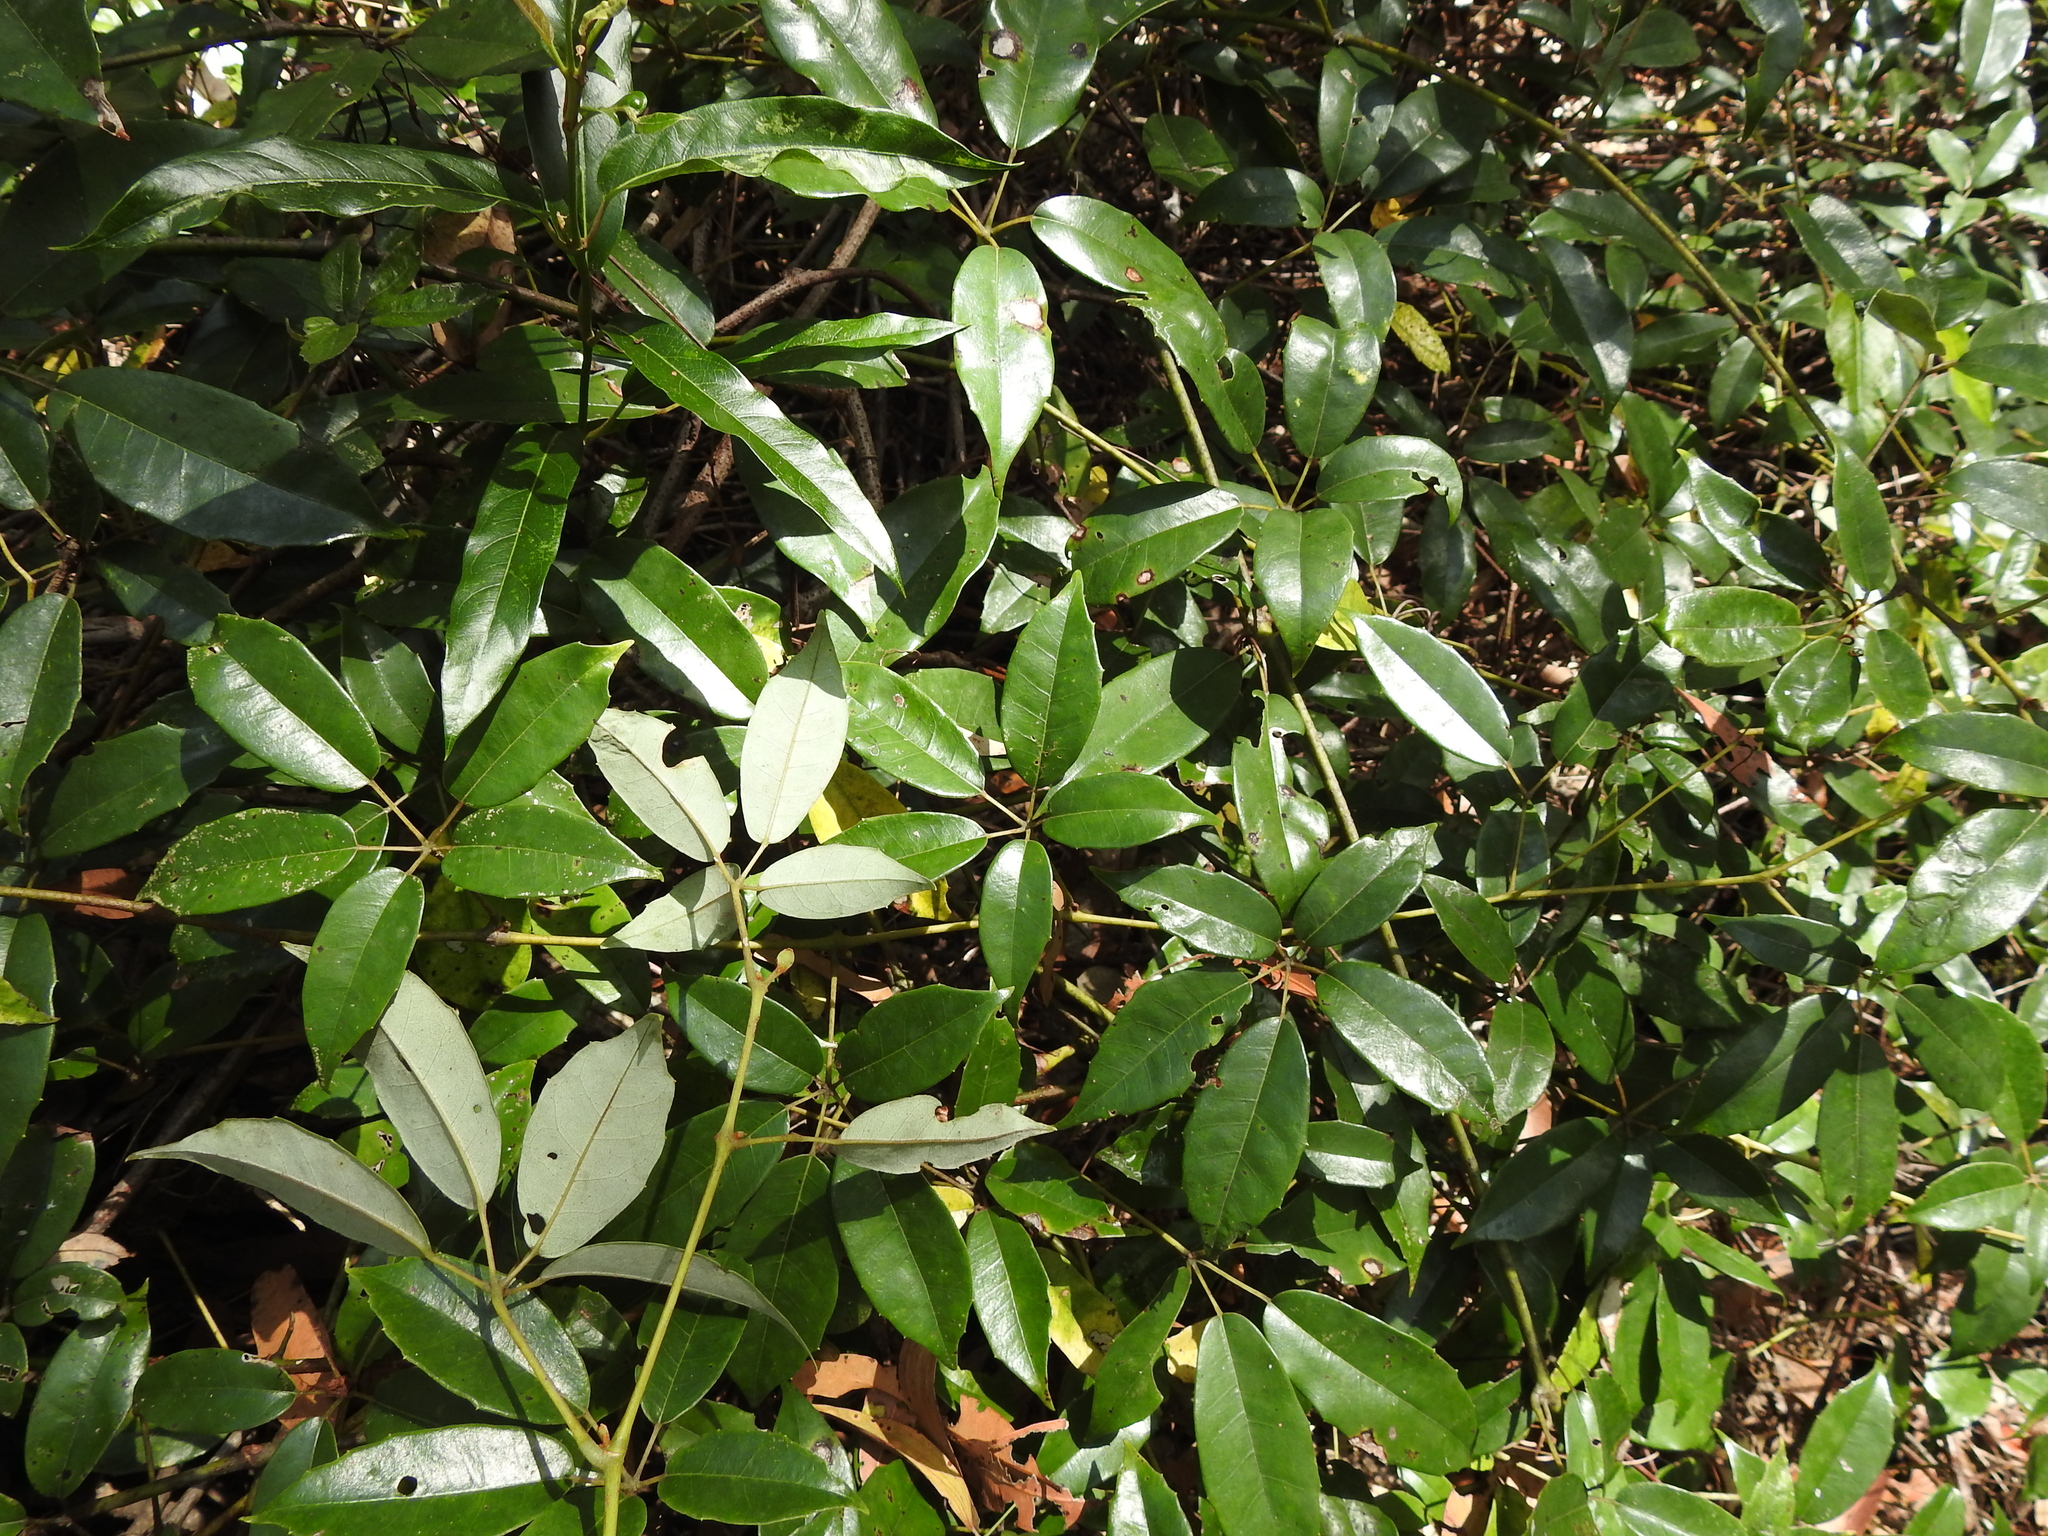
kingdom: Plantae
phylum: Tracheophyta
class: Magnoliopsida
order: Vitales
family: Vitaceae
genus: Nothocissus
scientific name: Nothocissus hypoglauca
